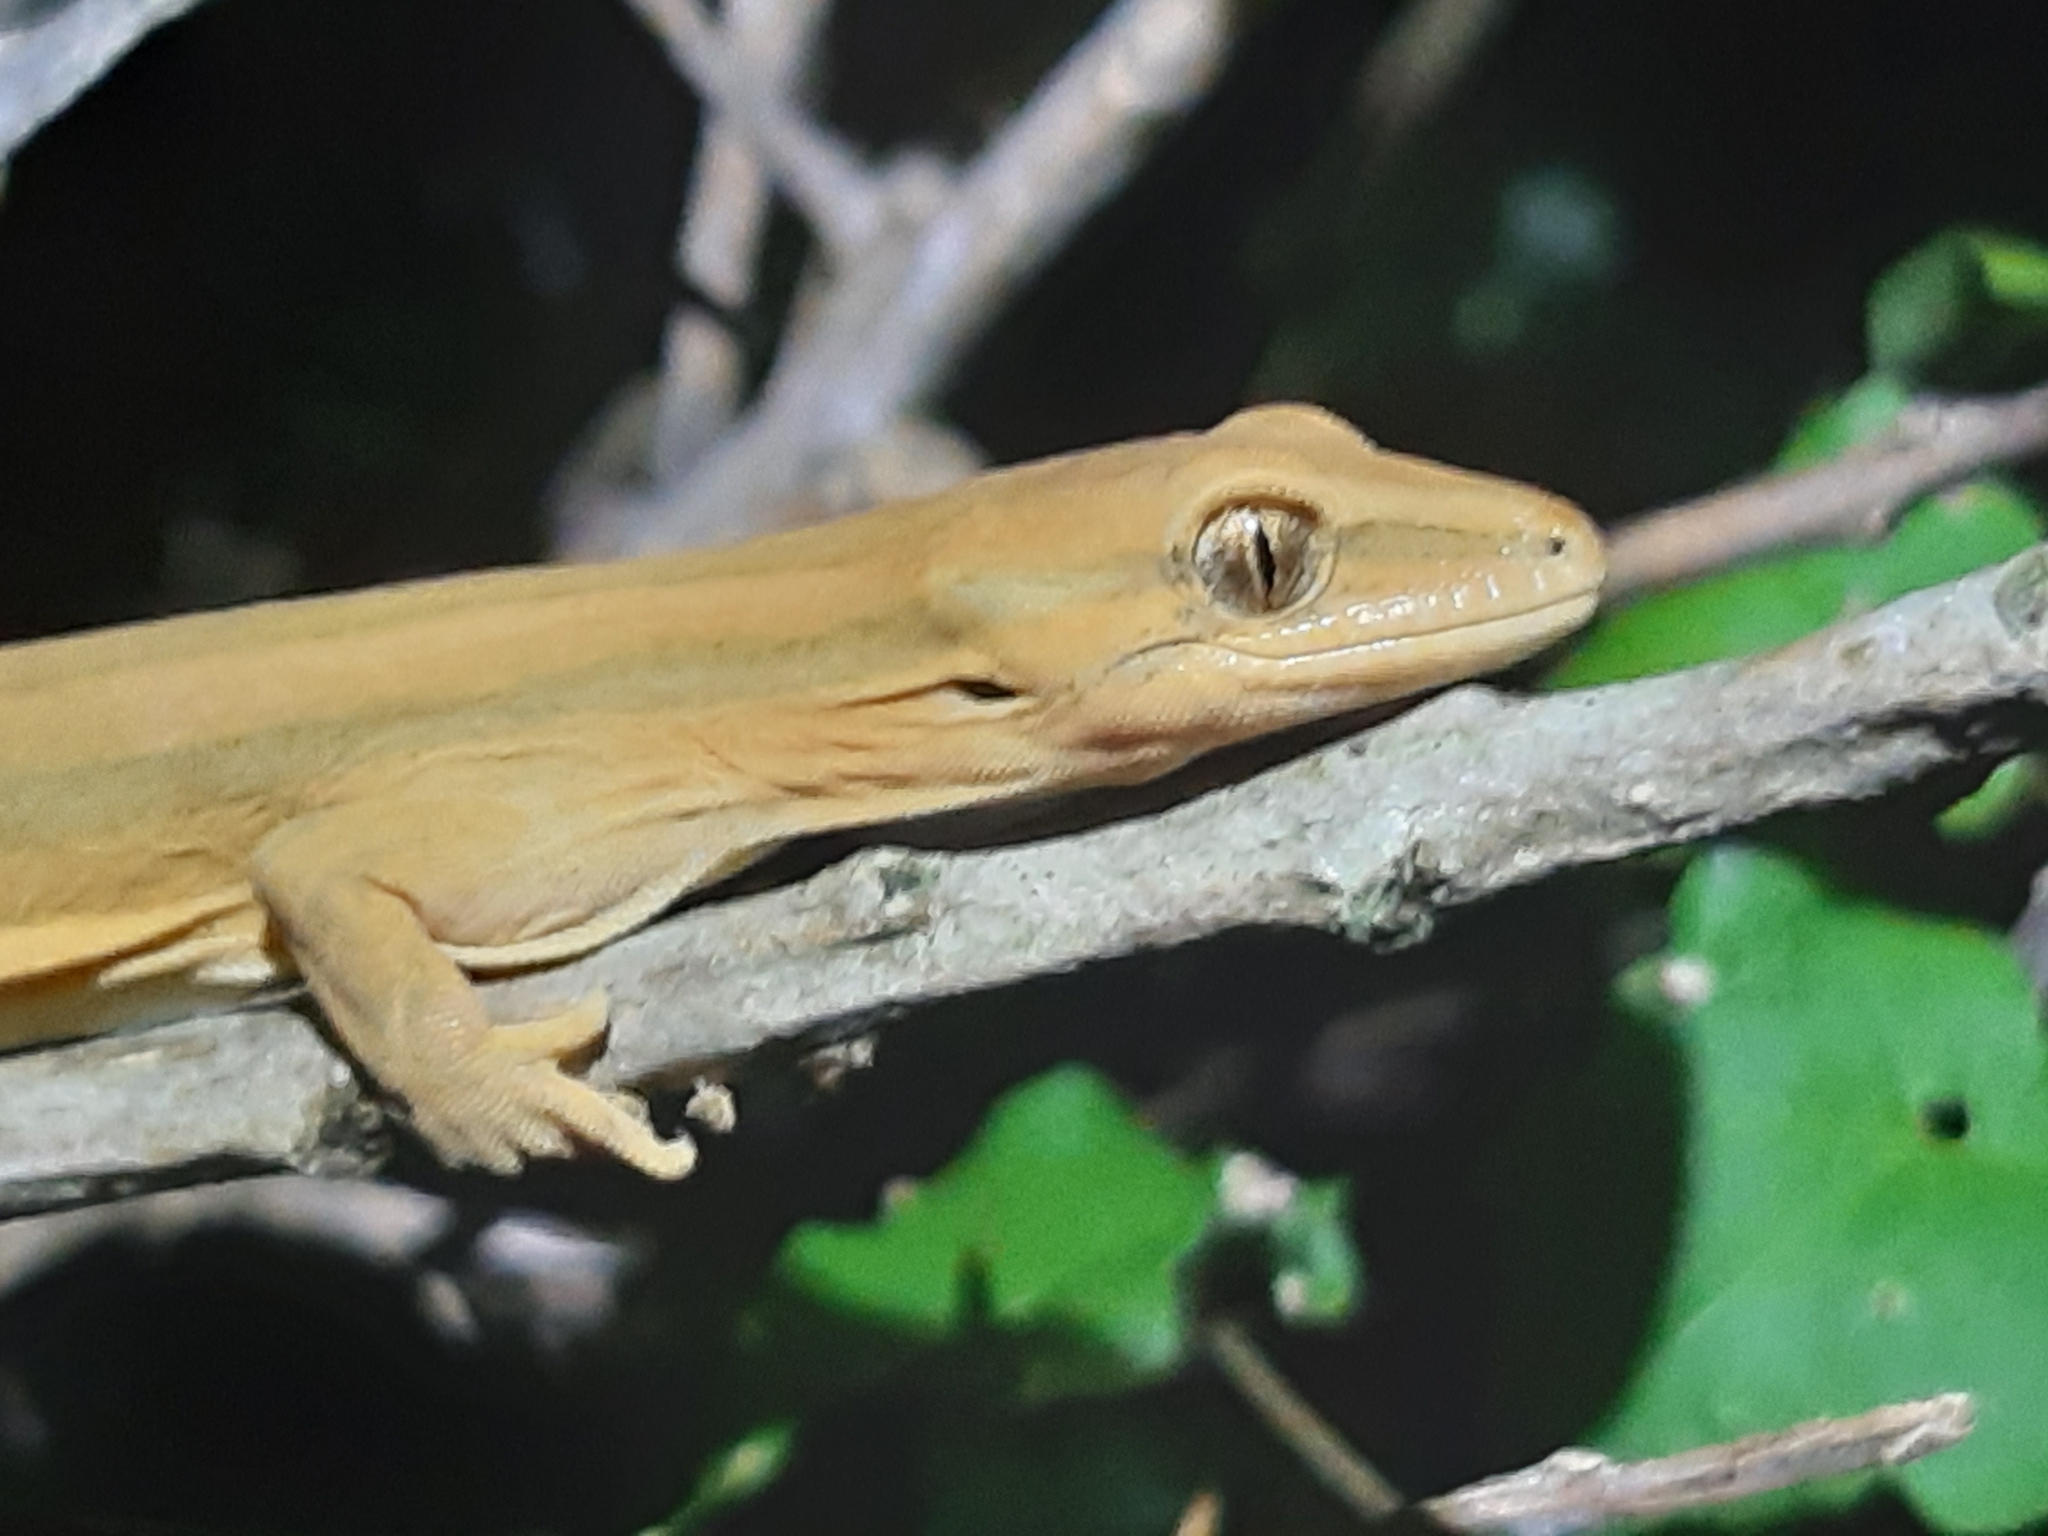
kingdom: Animalia
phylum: Chordata
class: Squamata
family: Diplodactylidae
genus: Toropuku
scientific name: Toropuku stephensi
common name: Stephen’s sticky-toed gecko
